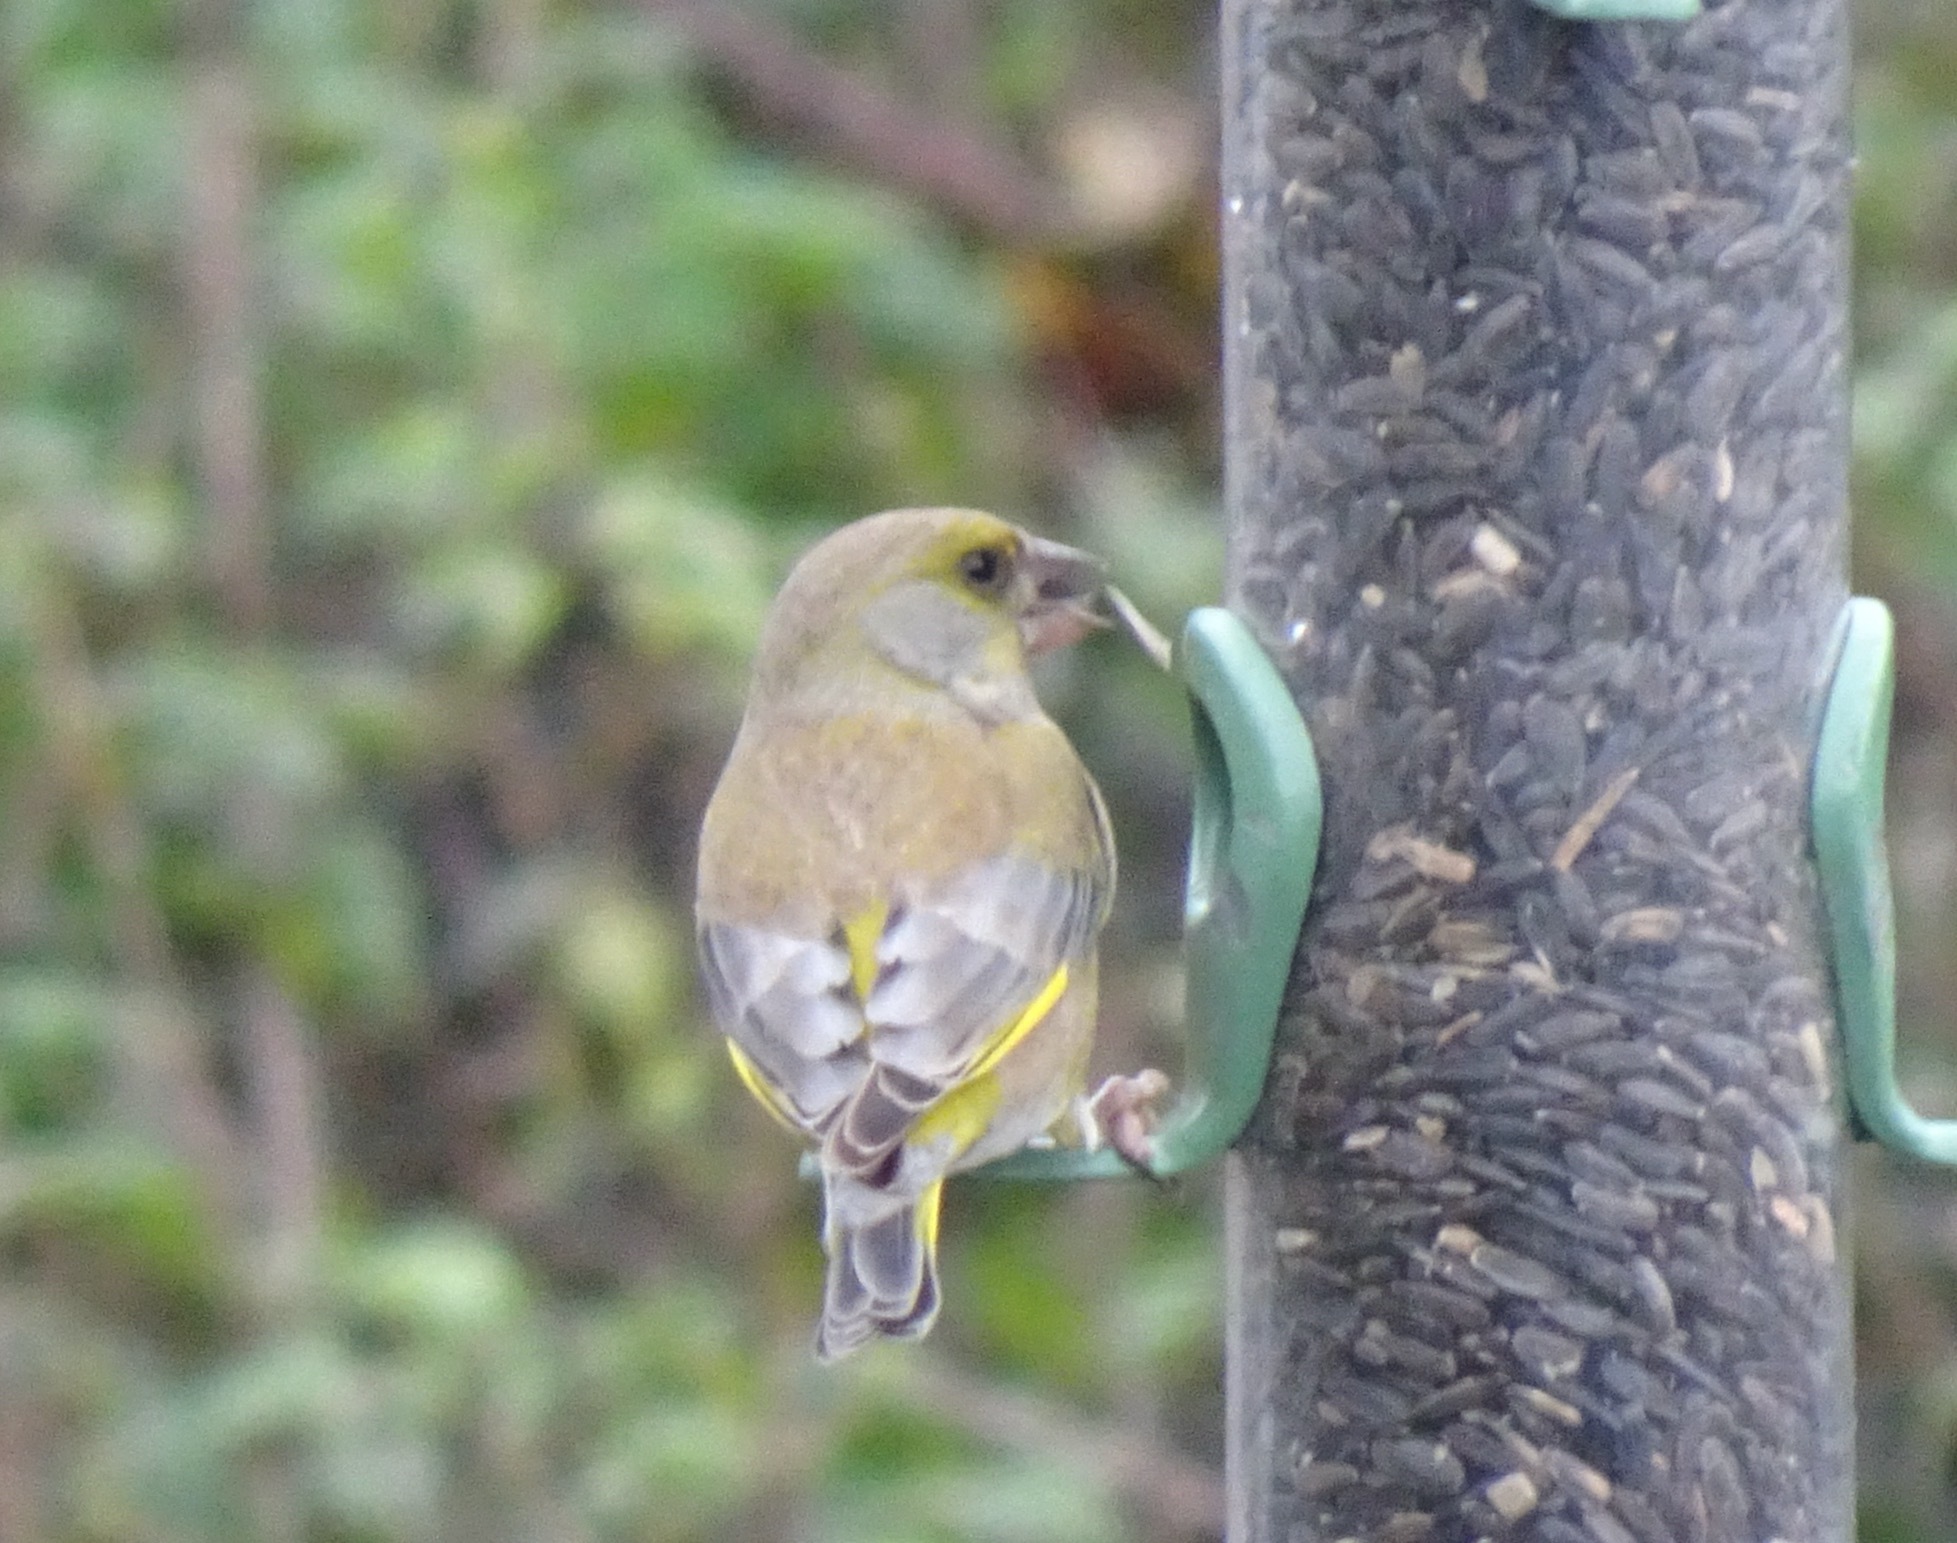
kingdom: Plantae
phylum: Tracheophyta
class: Liliopsida
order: Poales
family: Poaceae
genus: Chloris
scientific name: Chloris chloris
